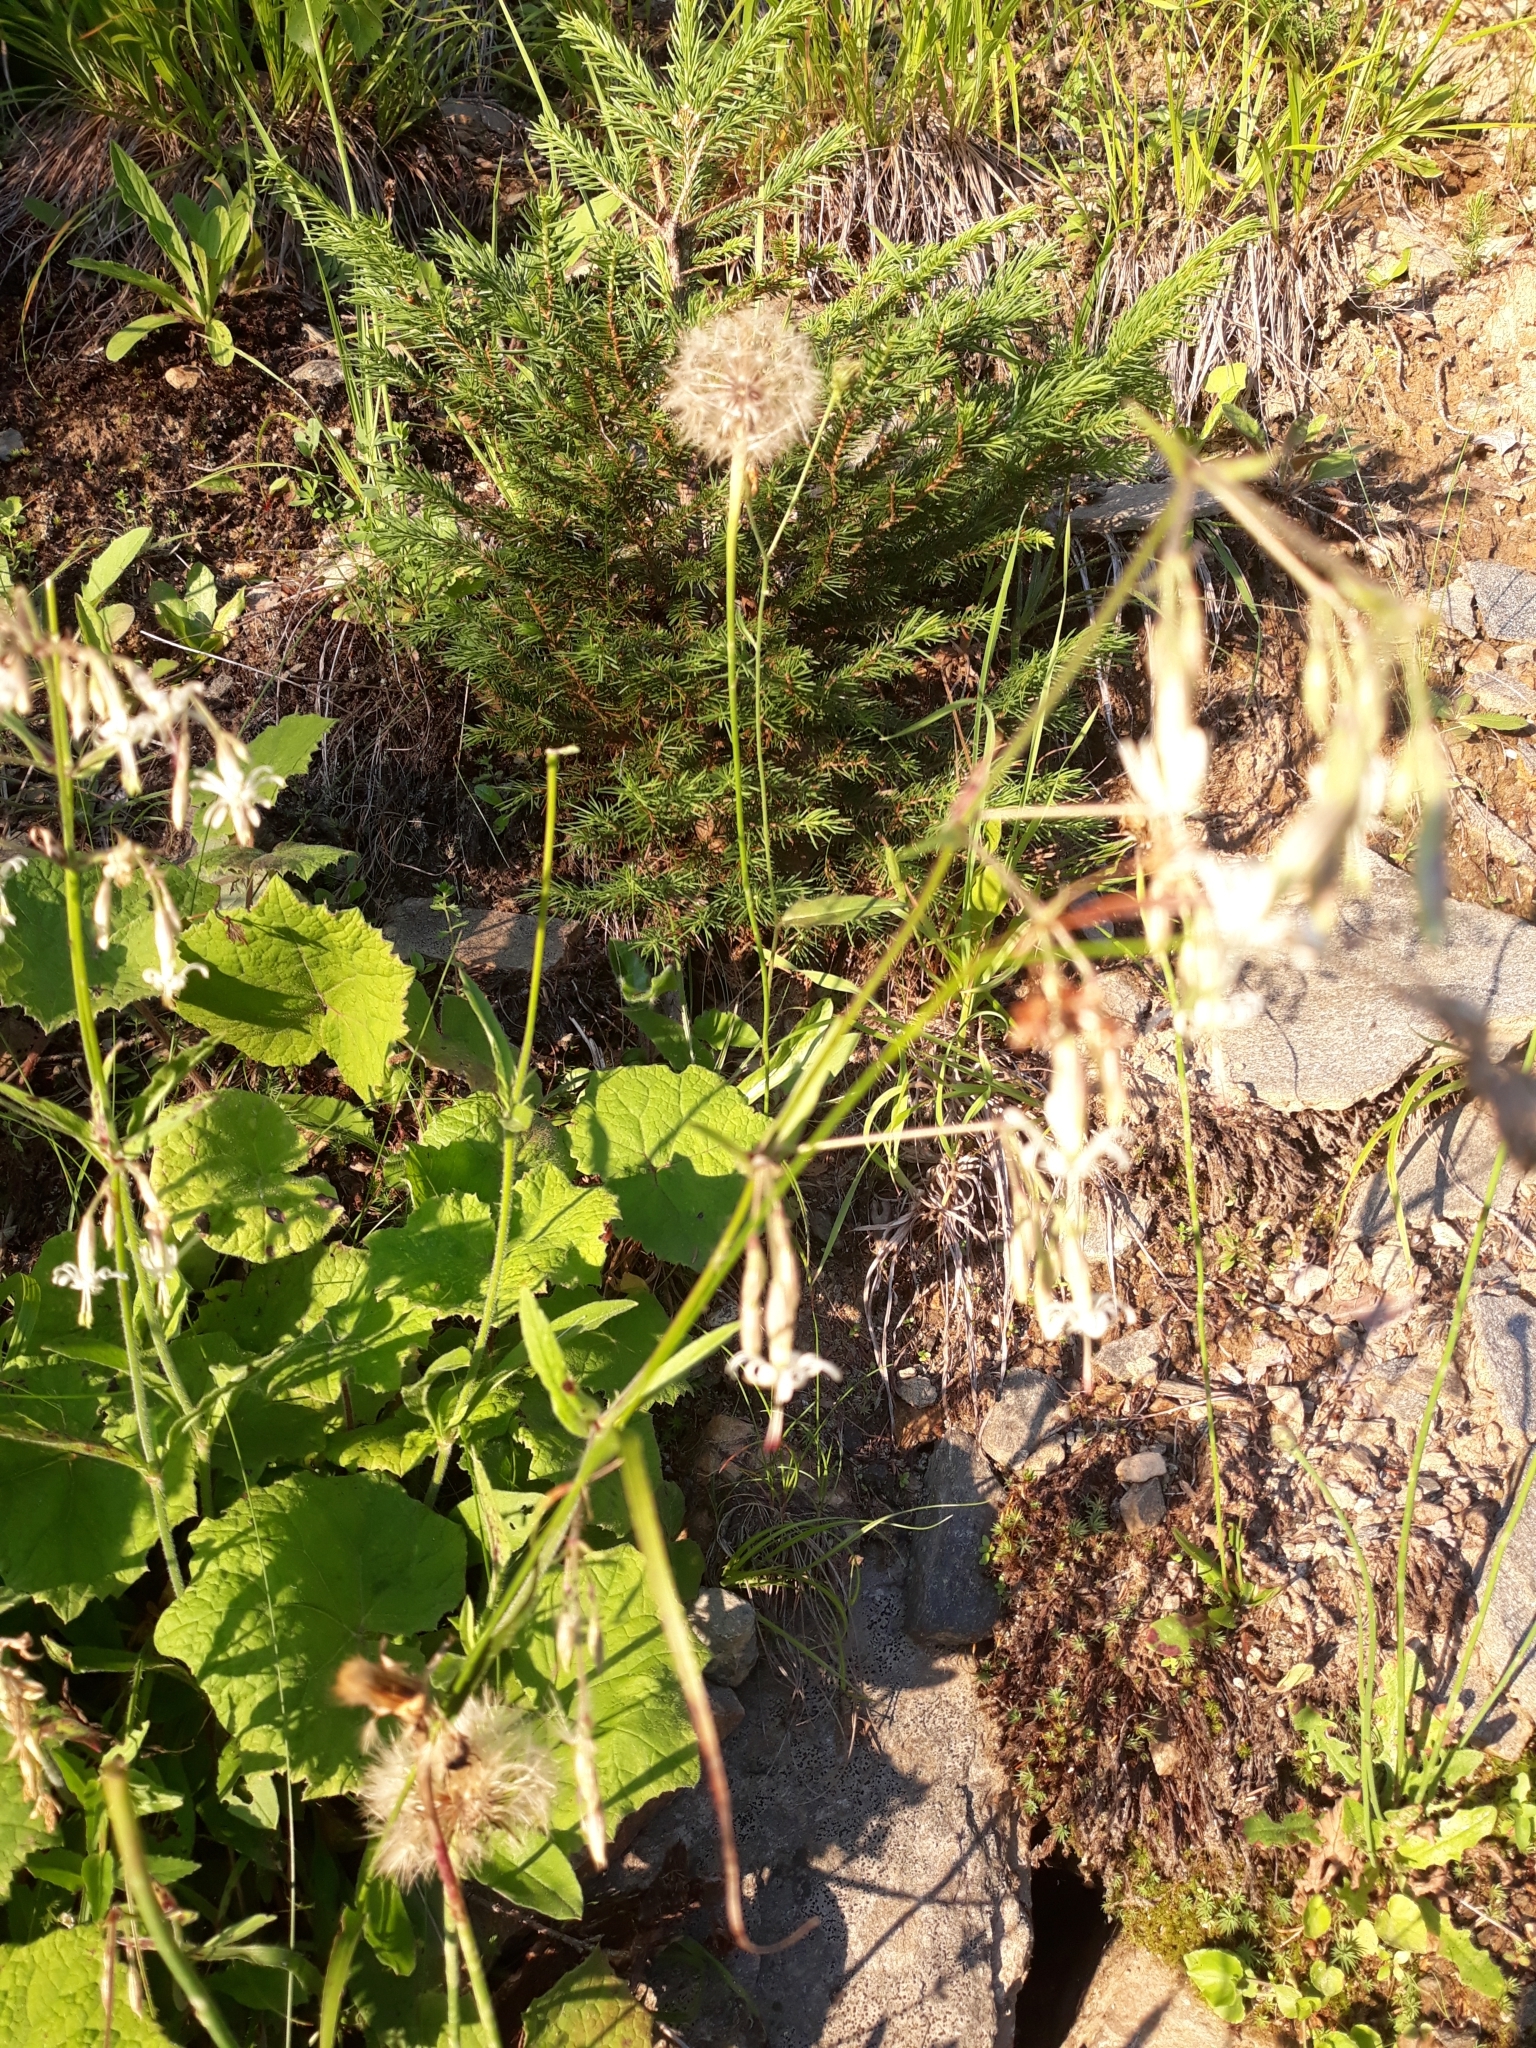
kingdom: Plantae
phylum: Tracheophyta
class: Magnoliopsida
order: Caryophyllales
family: Caryophyllaceae
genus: Silene
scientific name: Silene nutans
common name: Nottingham catchfly
